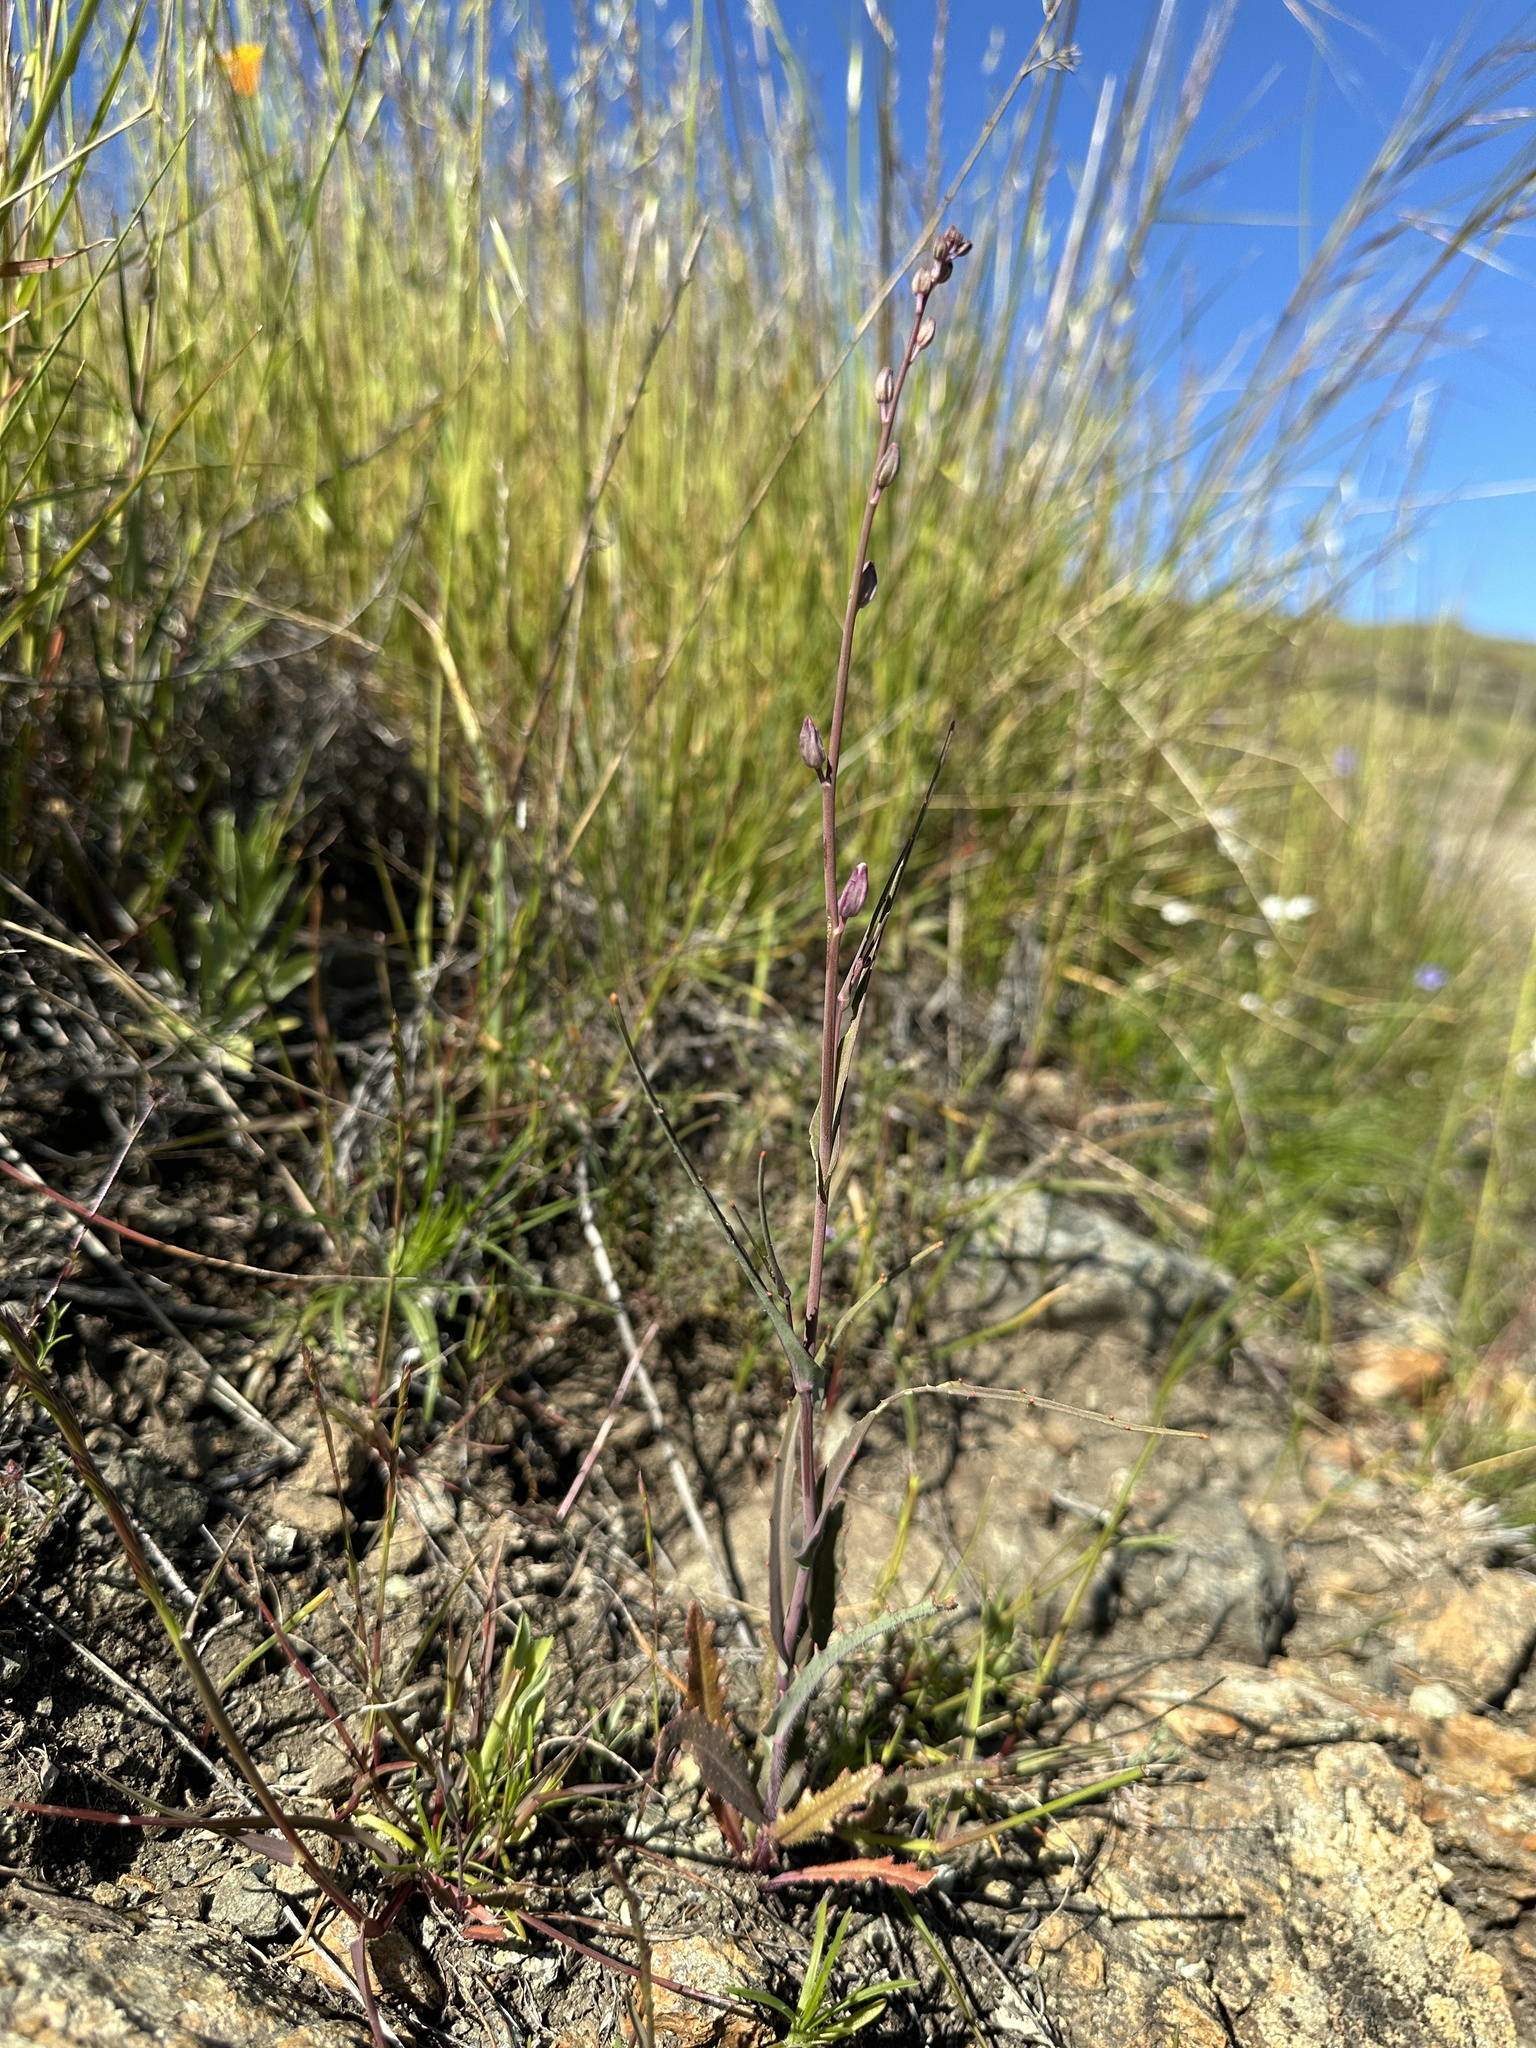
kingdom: Plantae
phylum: Tracheophyta
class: Magnoliopsida
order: Brassicales
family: Brassicaceae
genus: Streptanthus
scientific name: Streptanthus glandulosus
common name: Jewel-flower
